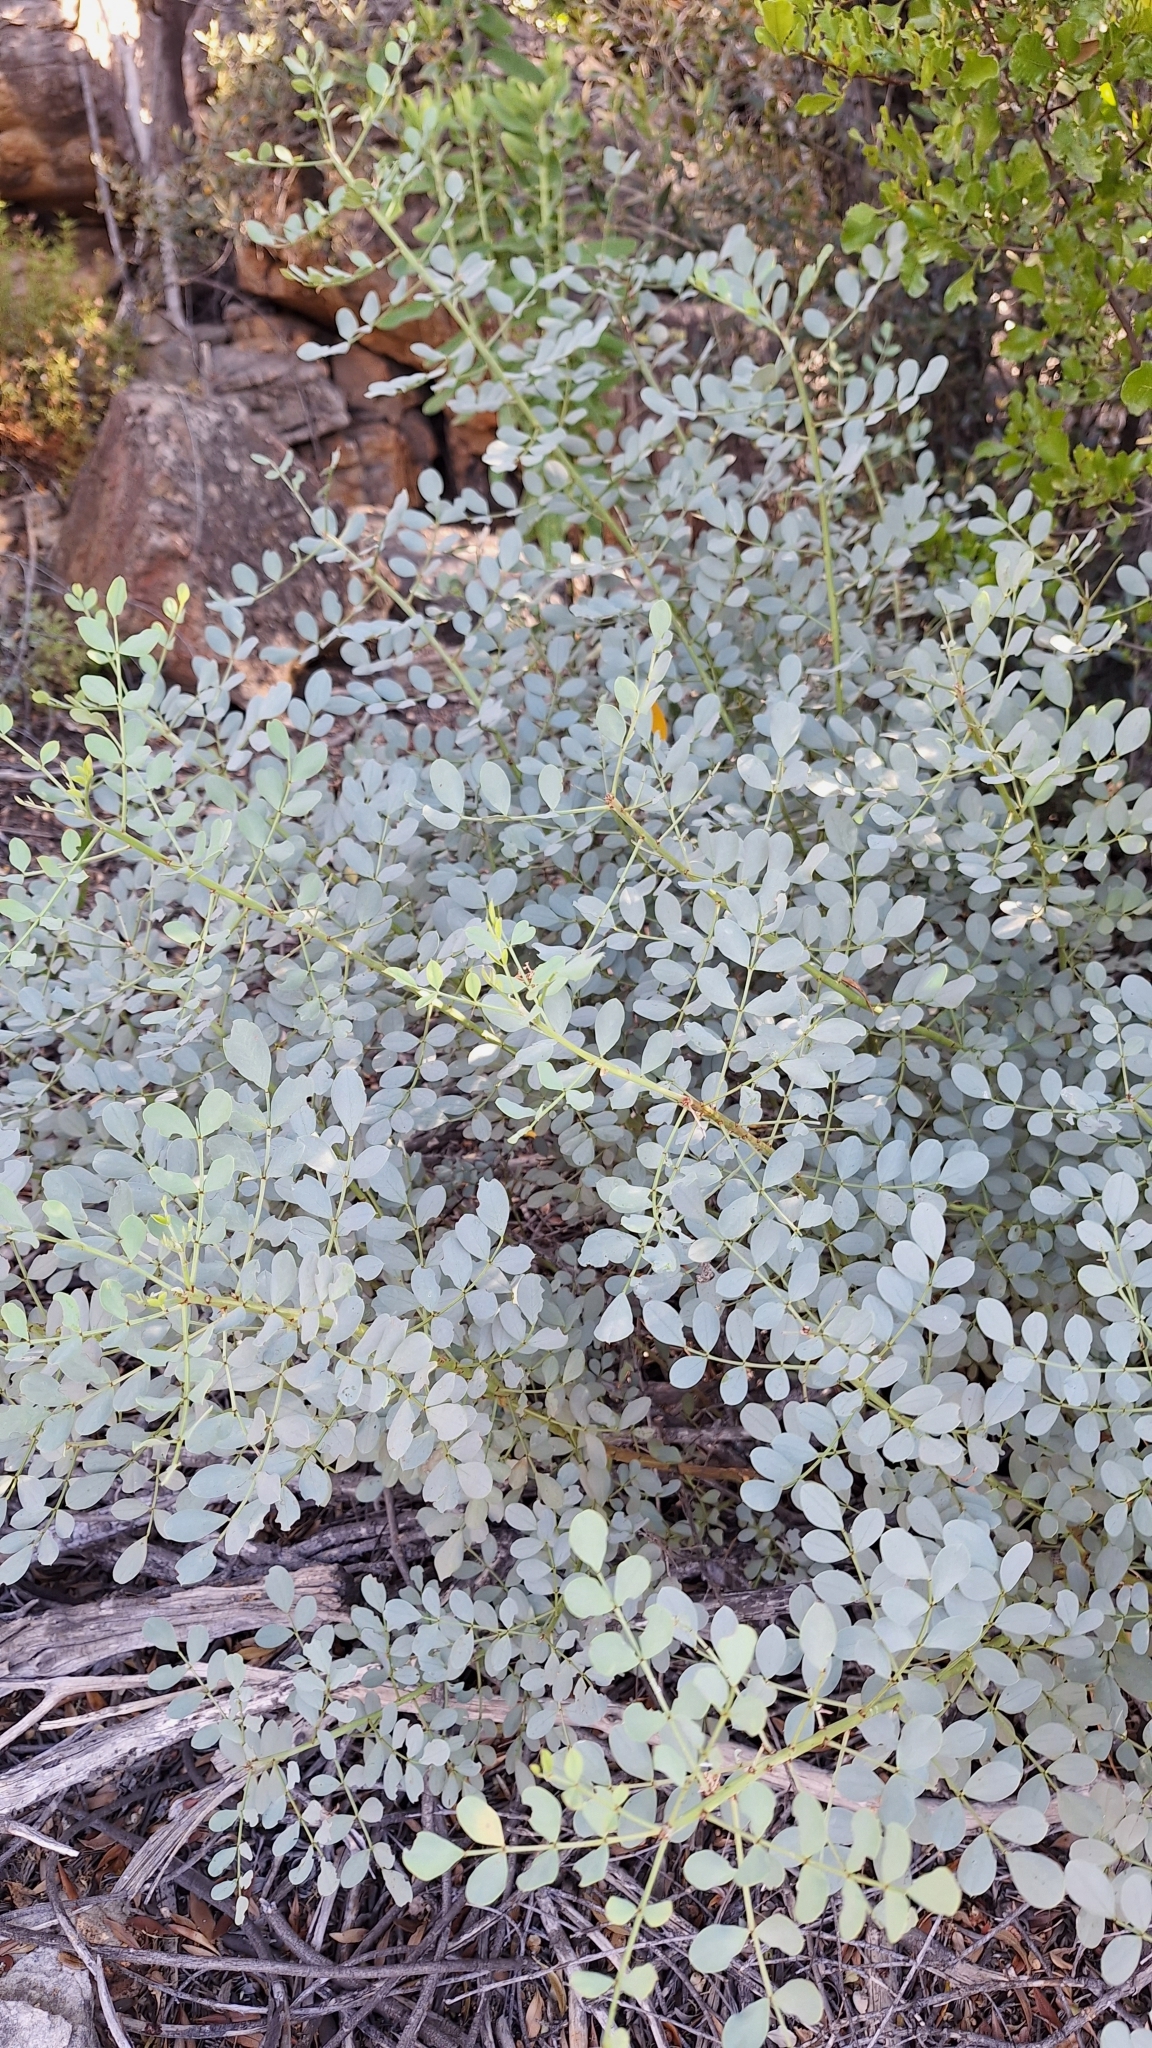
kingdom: Plantae
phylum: Tracheophyta
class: Magnoliopsida
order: Fabales
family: Fabaceae
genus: Indigofera
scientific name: Indigofera frutescens
